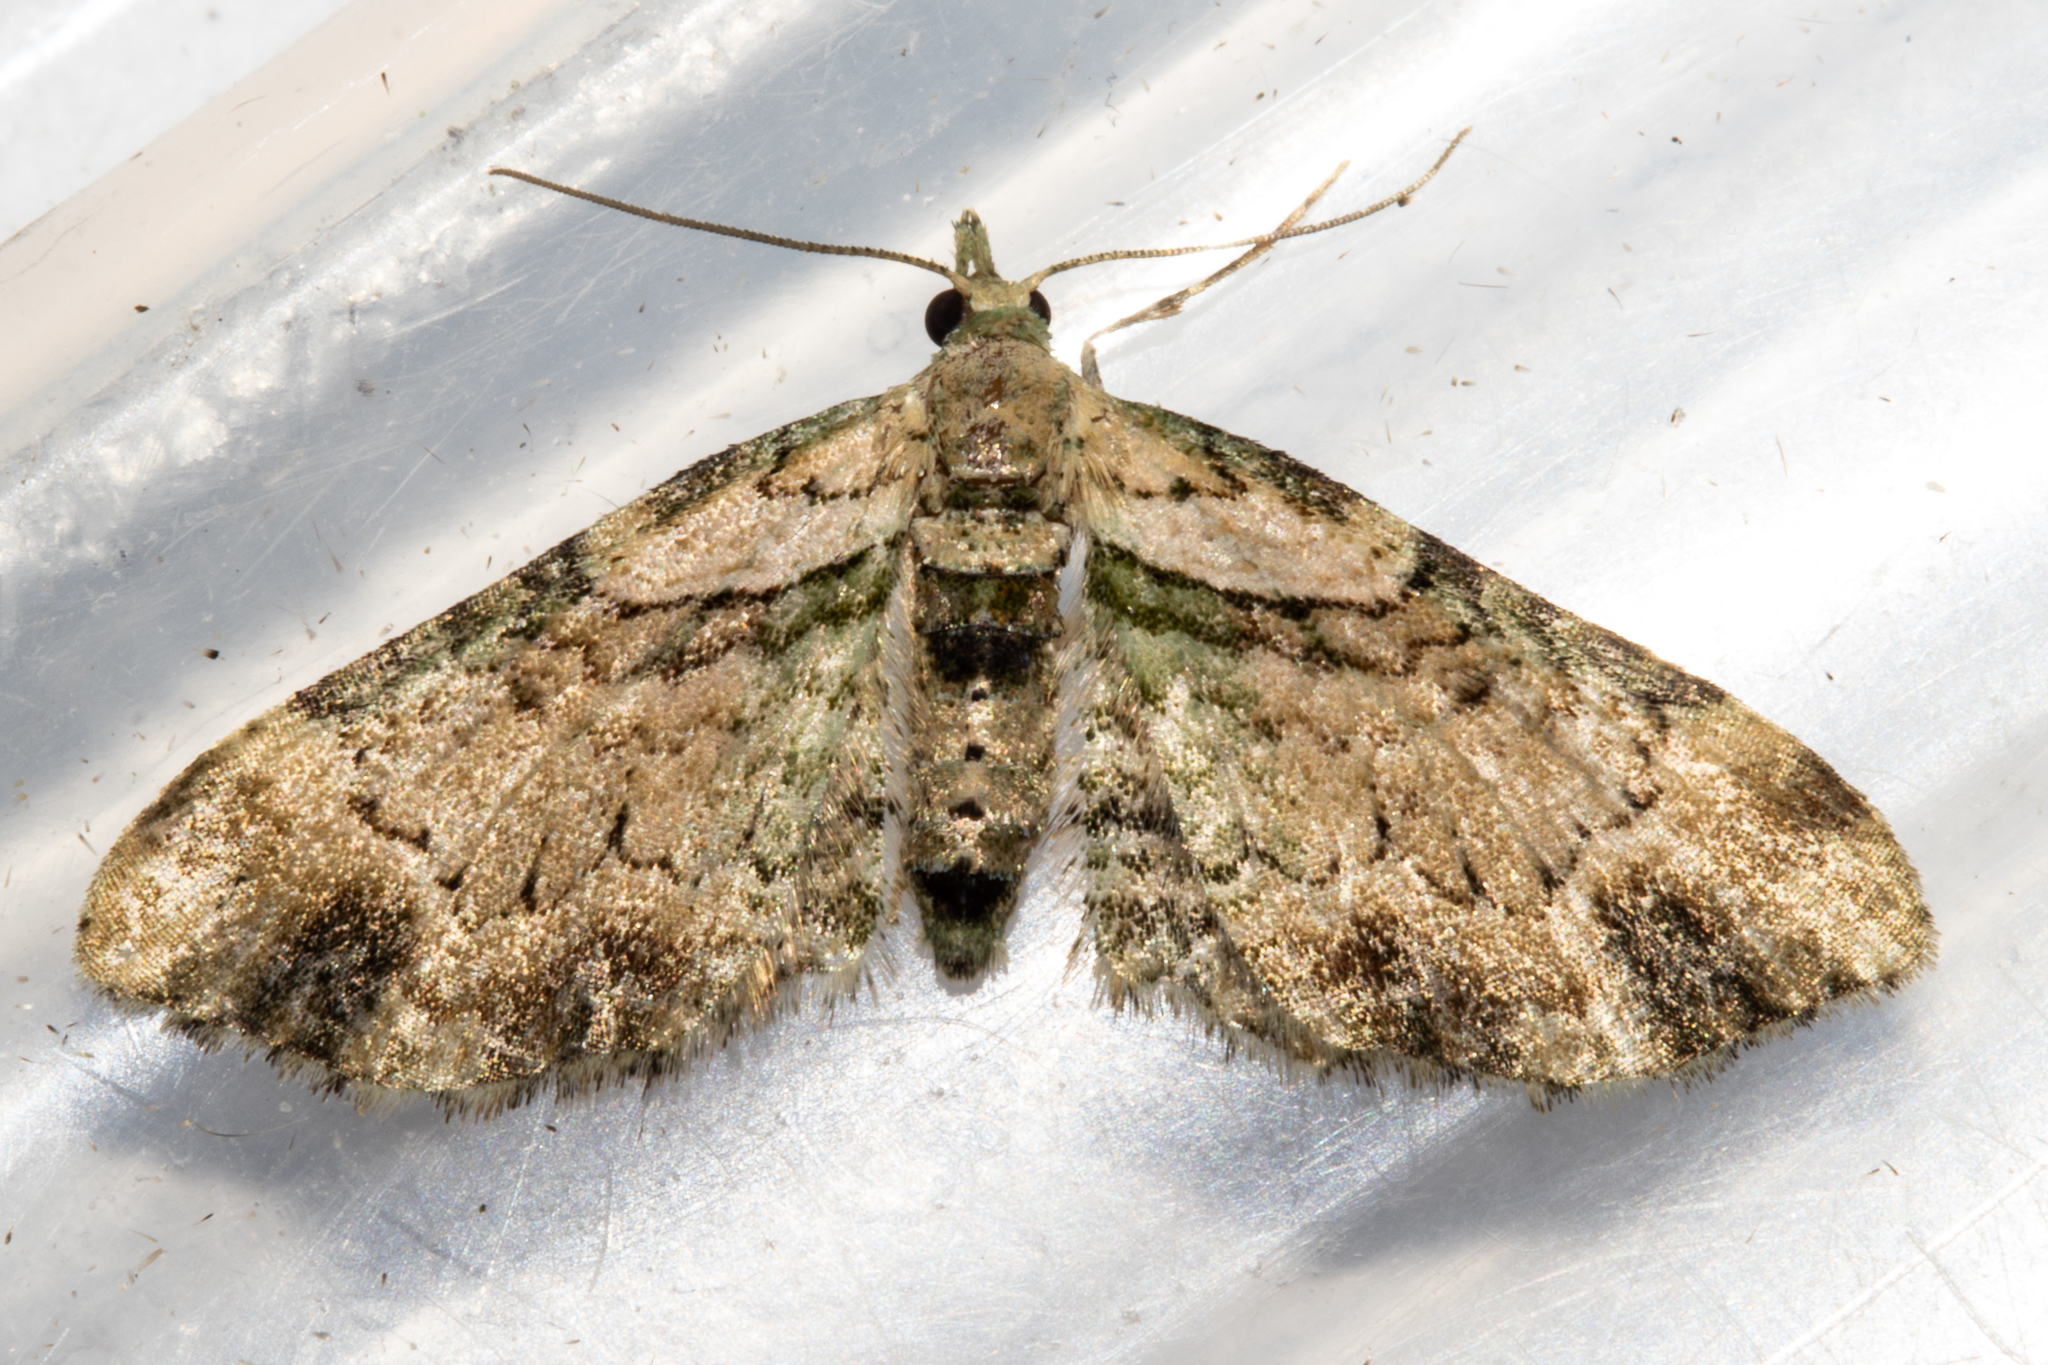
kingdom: Animalia
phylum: Arthropoda
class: Insecta
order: Lepidoptera
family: Geometridae
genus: Chloroclystis
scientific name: Chloroclystis
